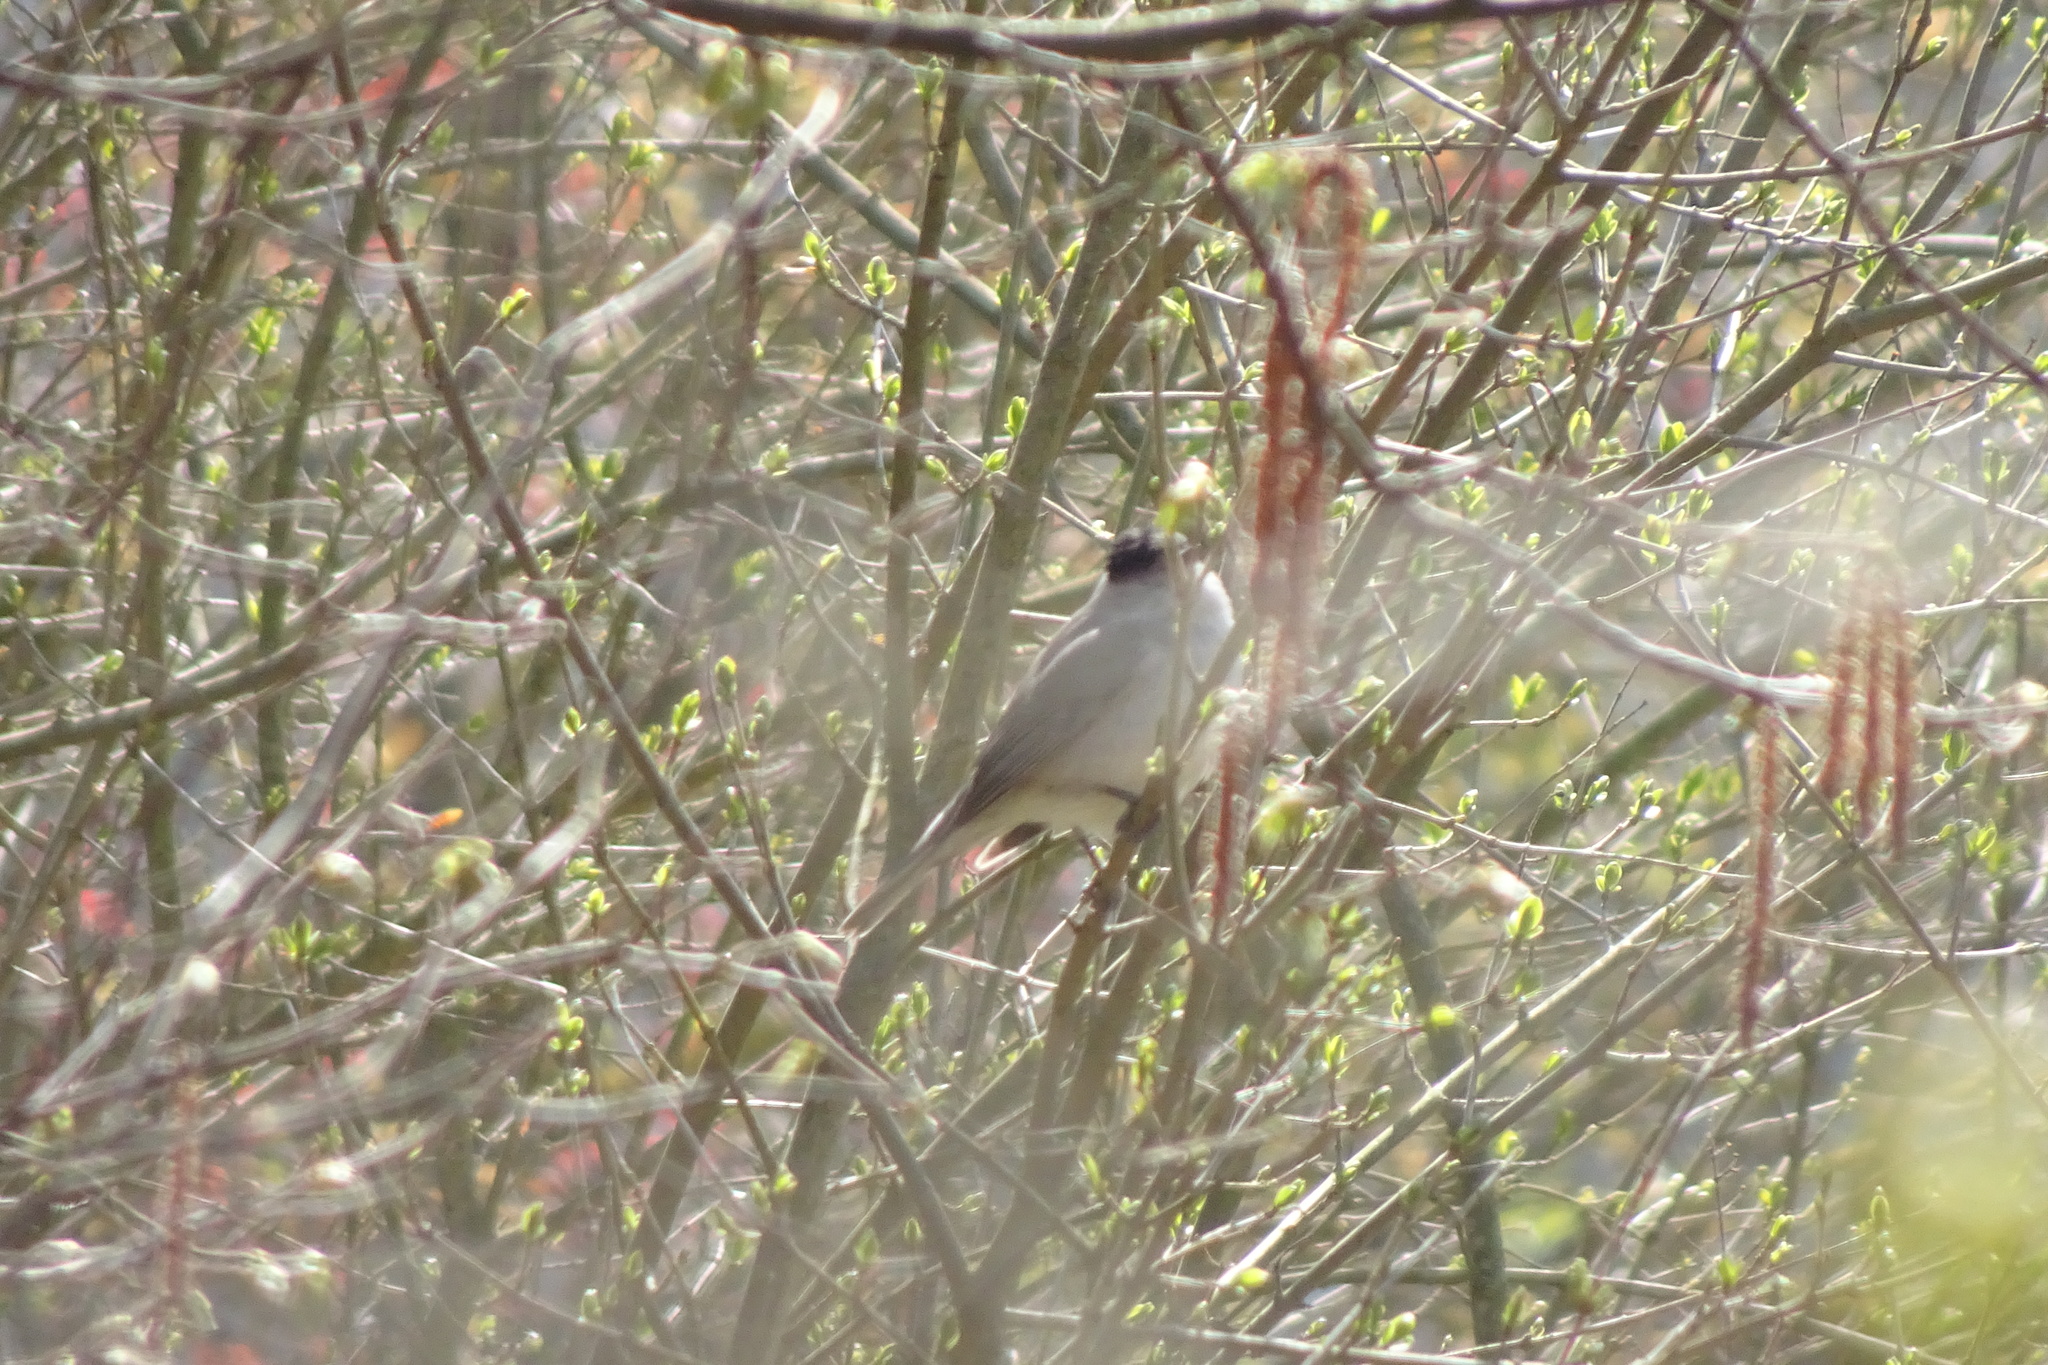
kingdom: Animalia
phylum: Chordata
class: Aves
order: Passeriformes
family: Sylviidae
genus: Sylvia
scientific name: Sylvia atricapilla
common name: Eurasian blackcap
